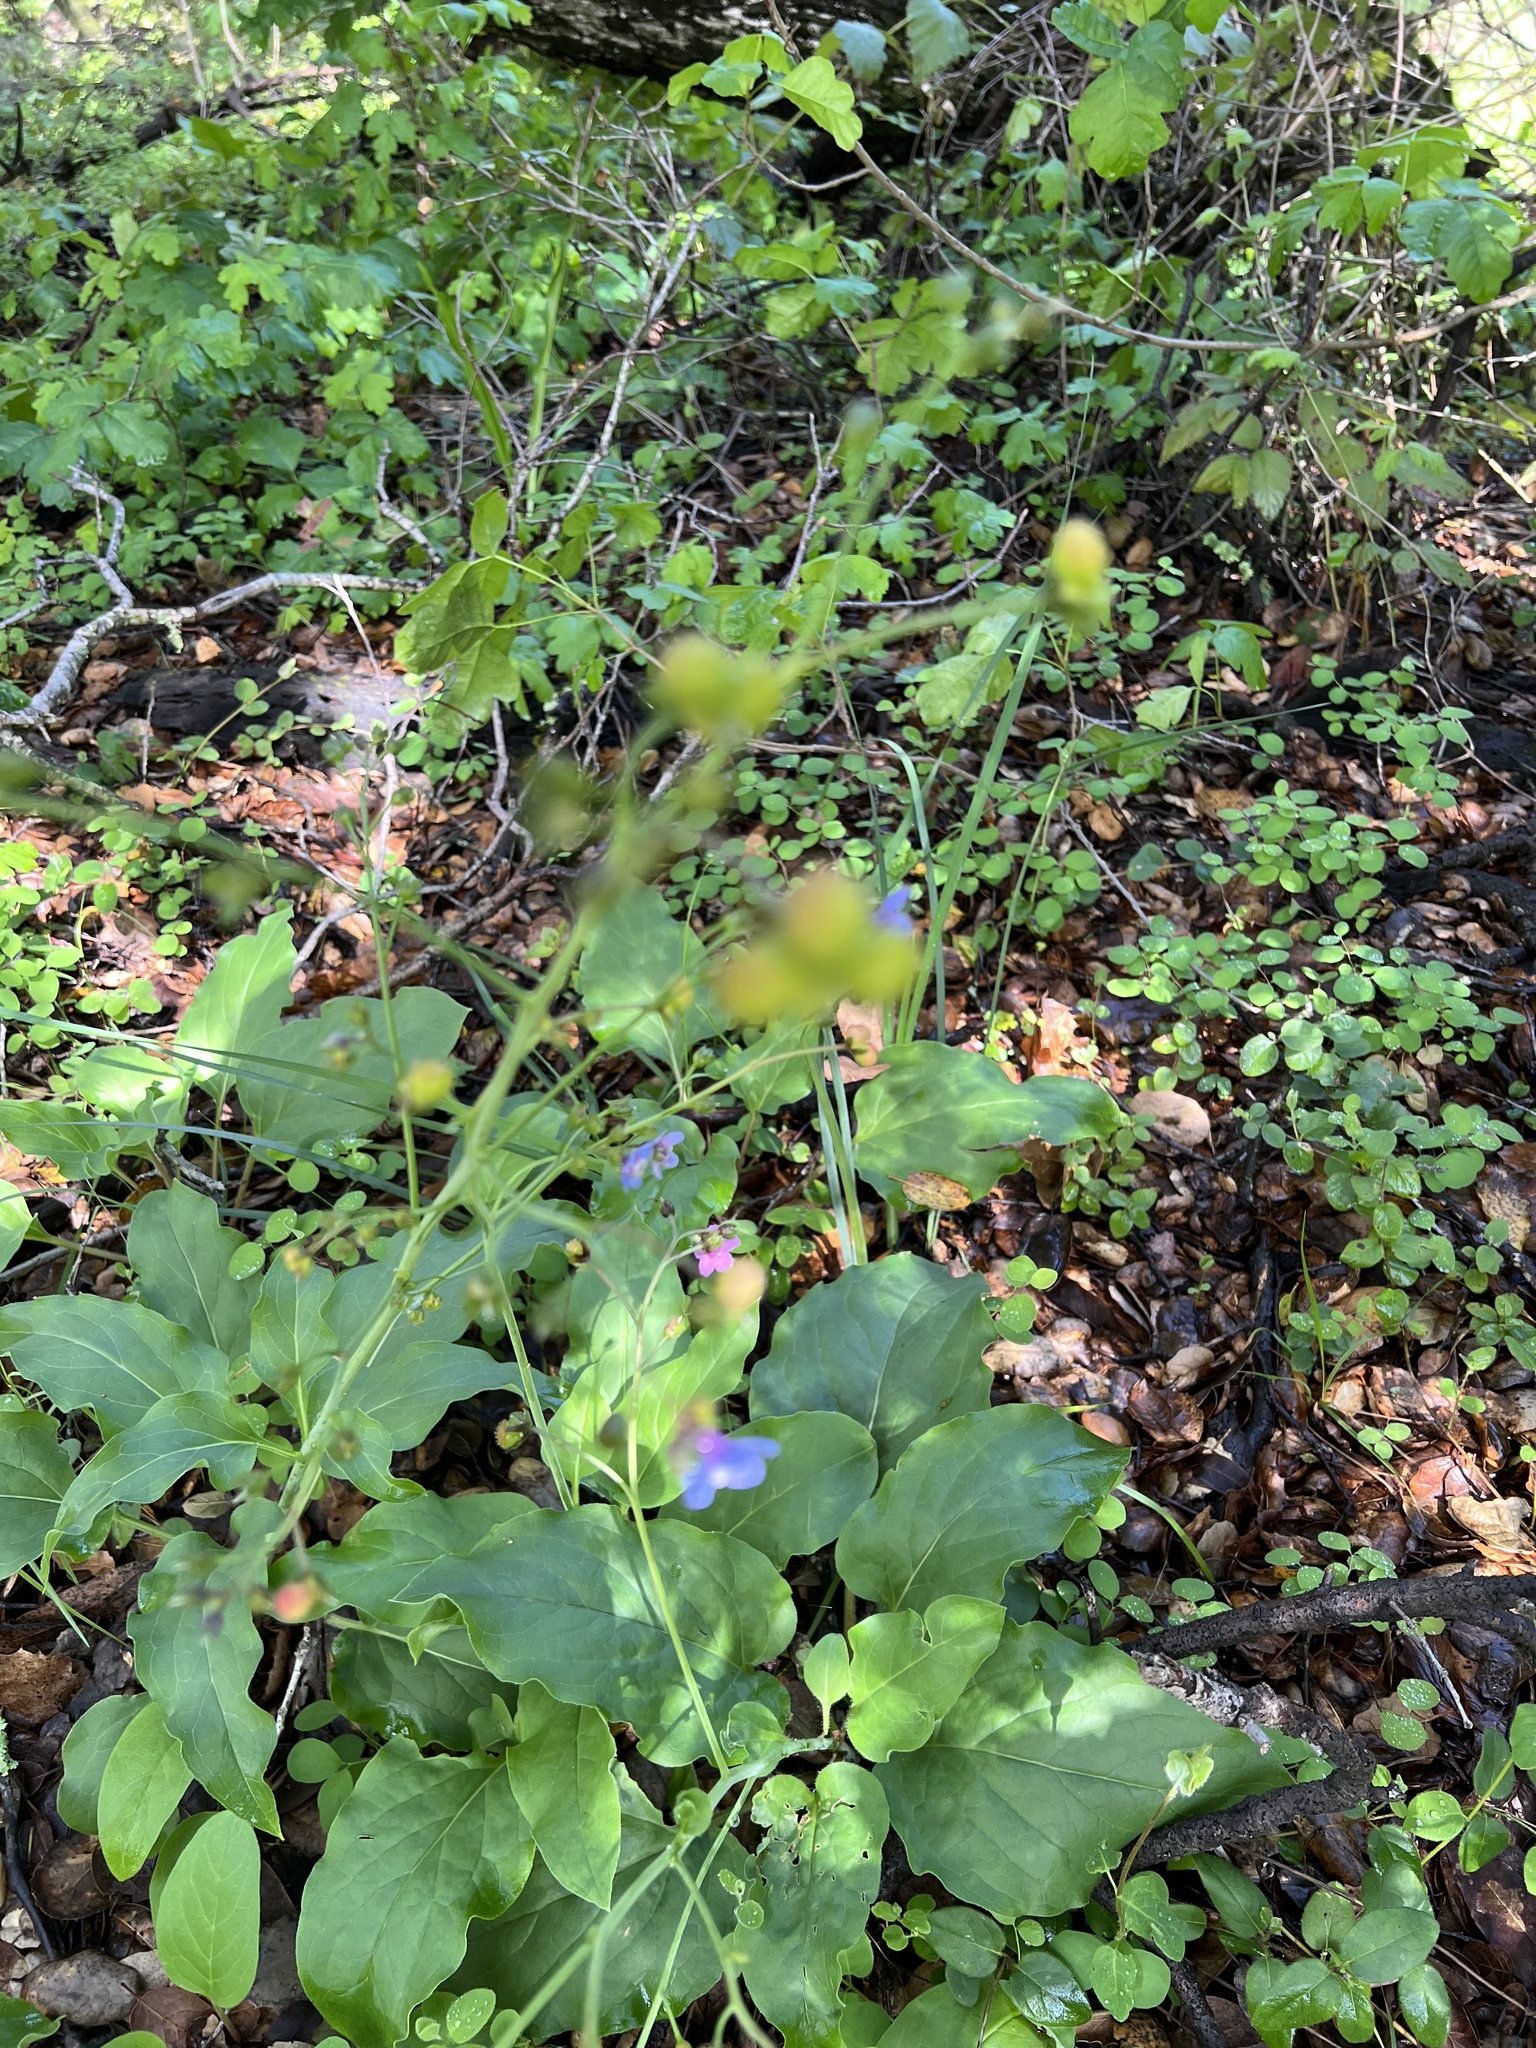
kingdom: Plantae
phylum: Tracheophyta
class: Magnoliopsida
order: Boraginales
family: Boraginaceae
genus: Adelinia
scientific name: Adelinia grande
